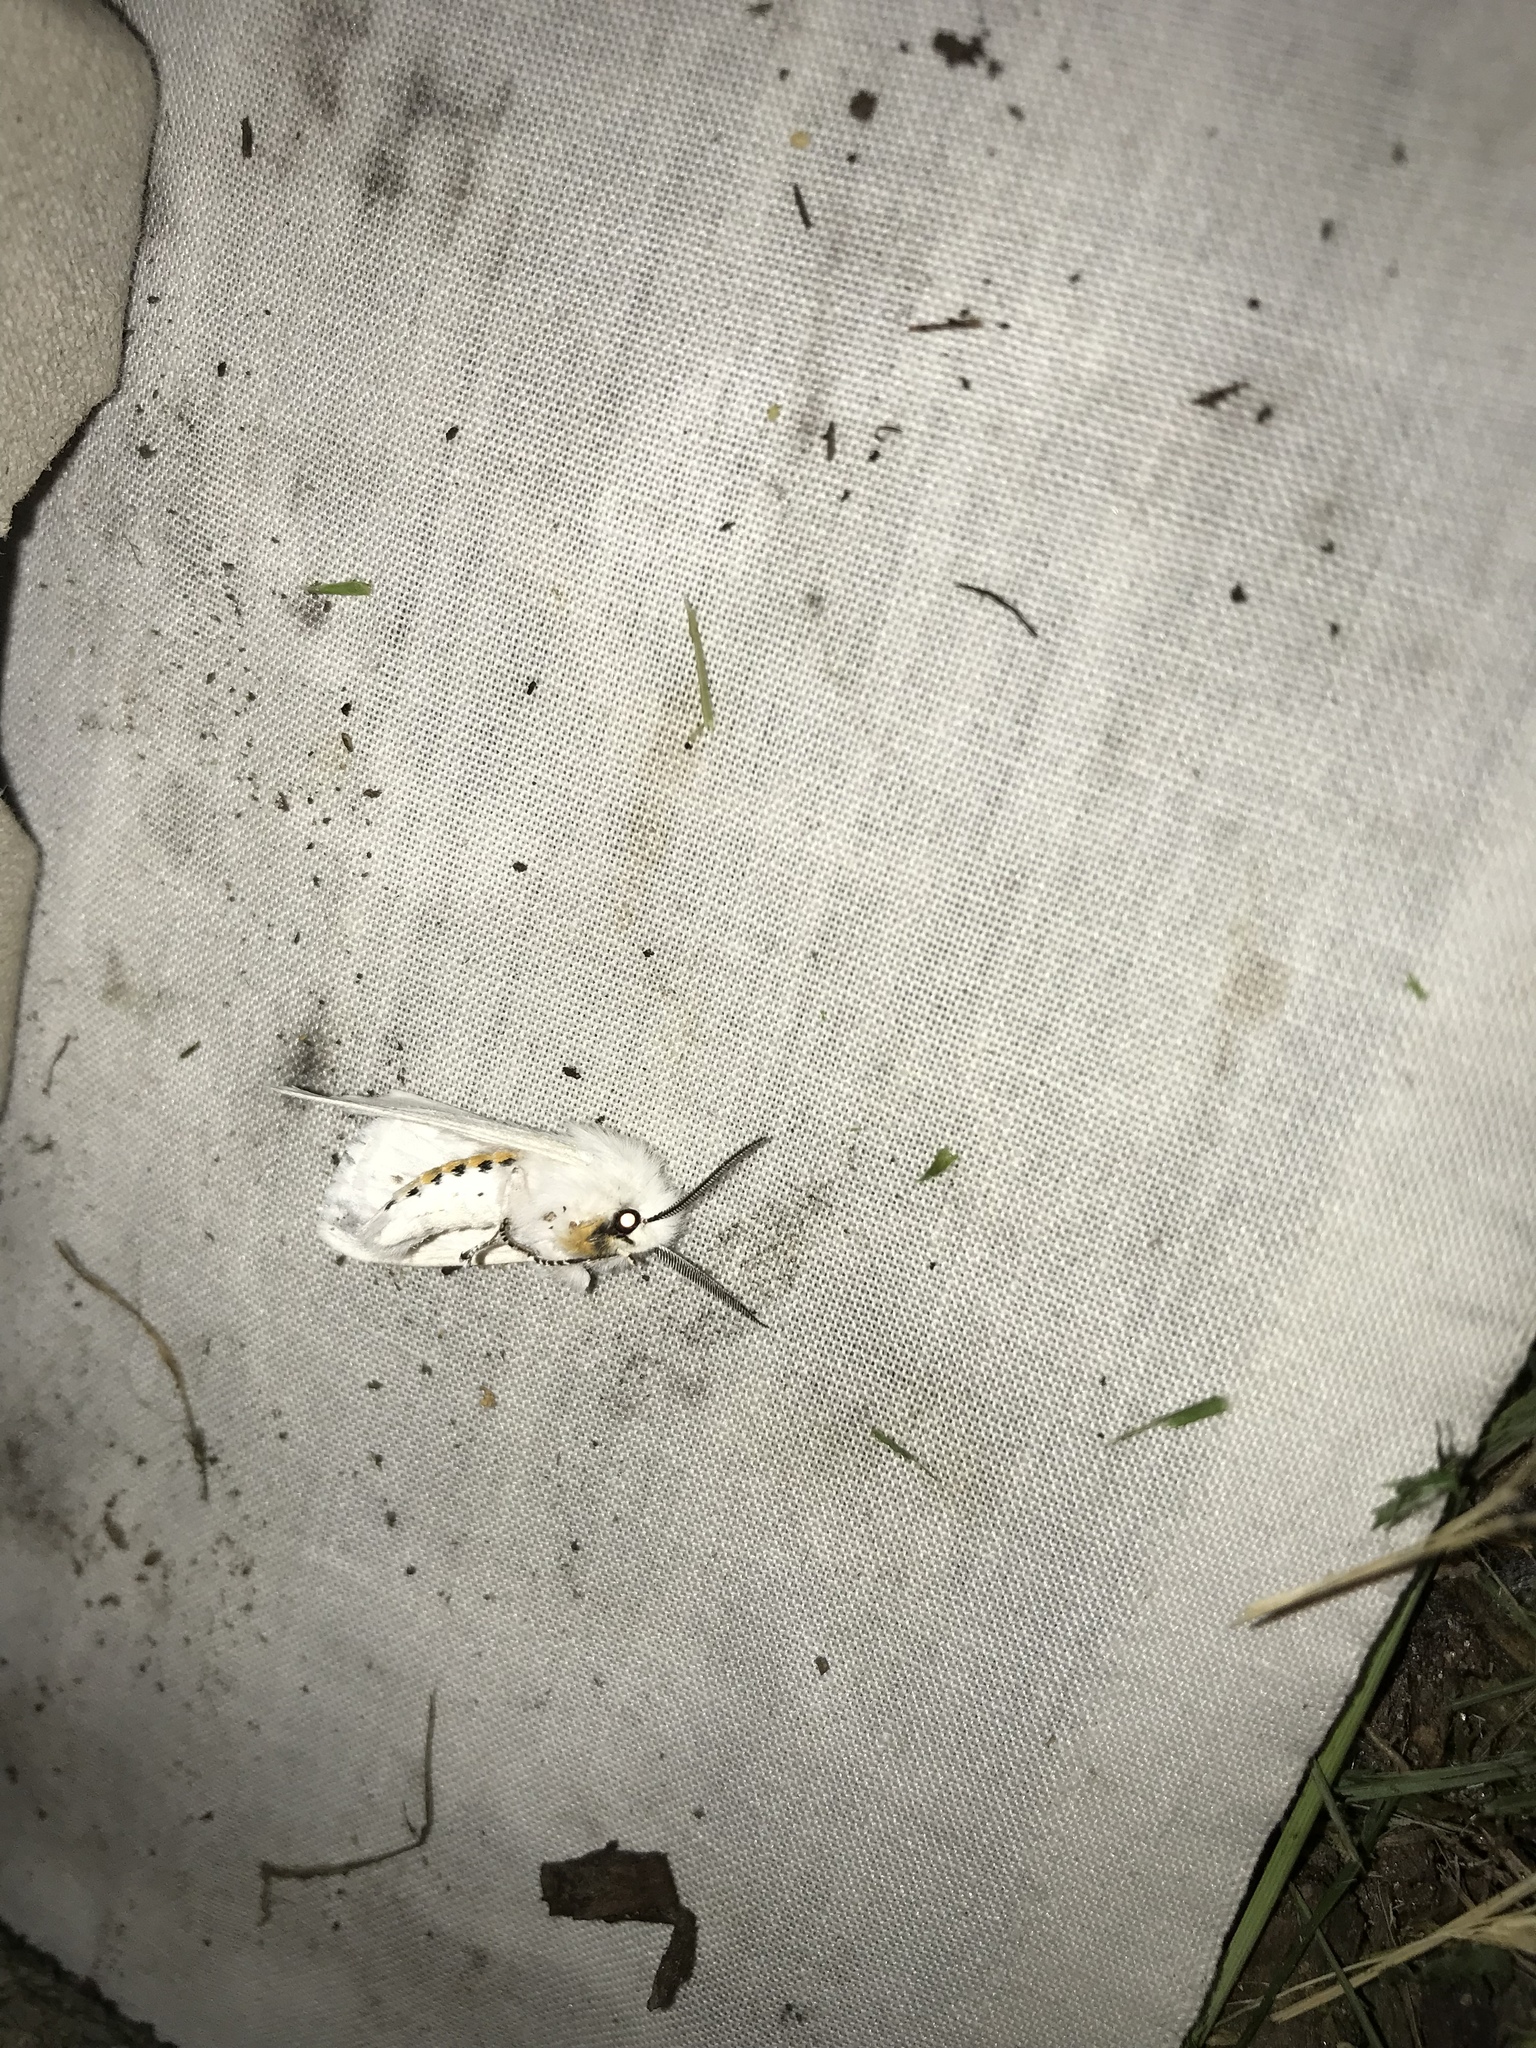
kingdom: Animalia
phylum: Arthropoda
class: Insecta
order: Lepidoptera
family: Erebidae
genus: Spilosoma
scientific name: Spilosoma virginica
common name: Virginia tiger moth
